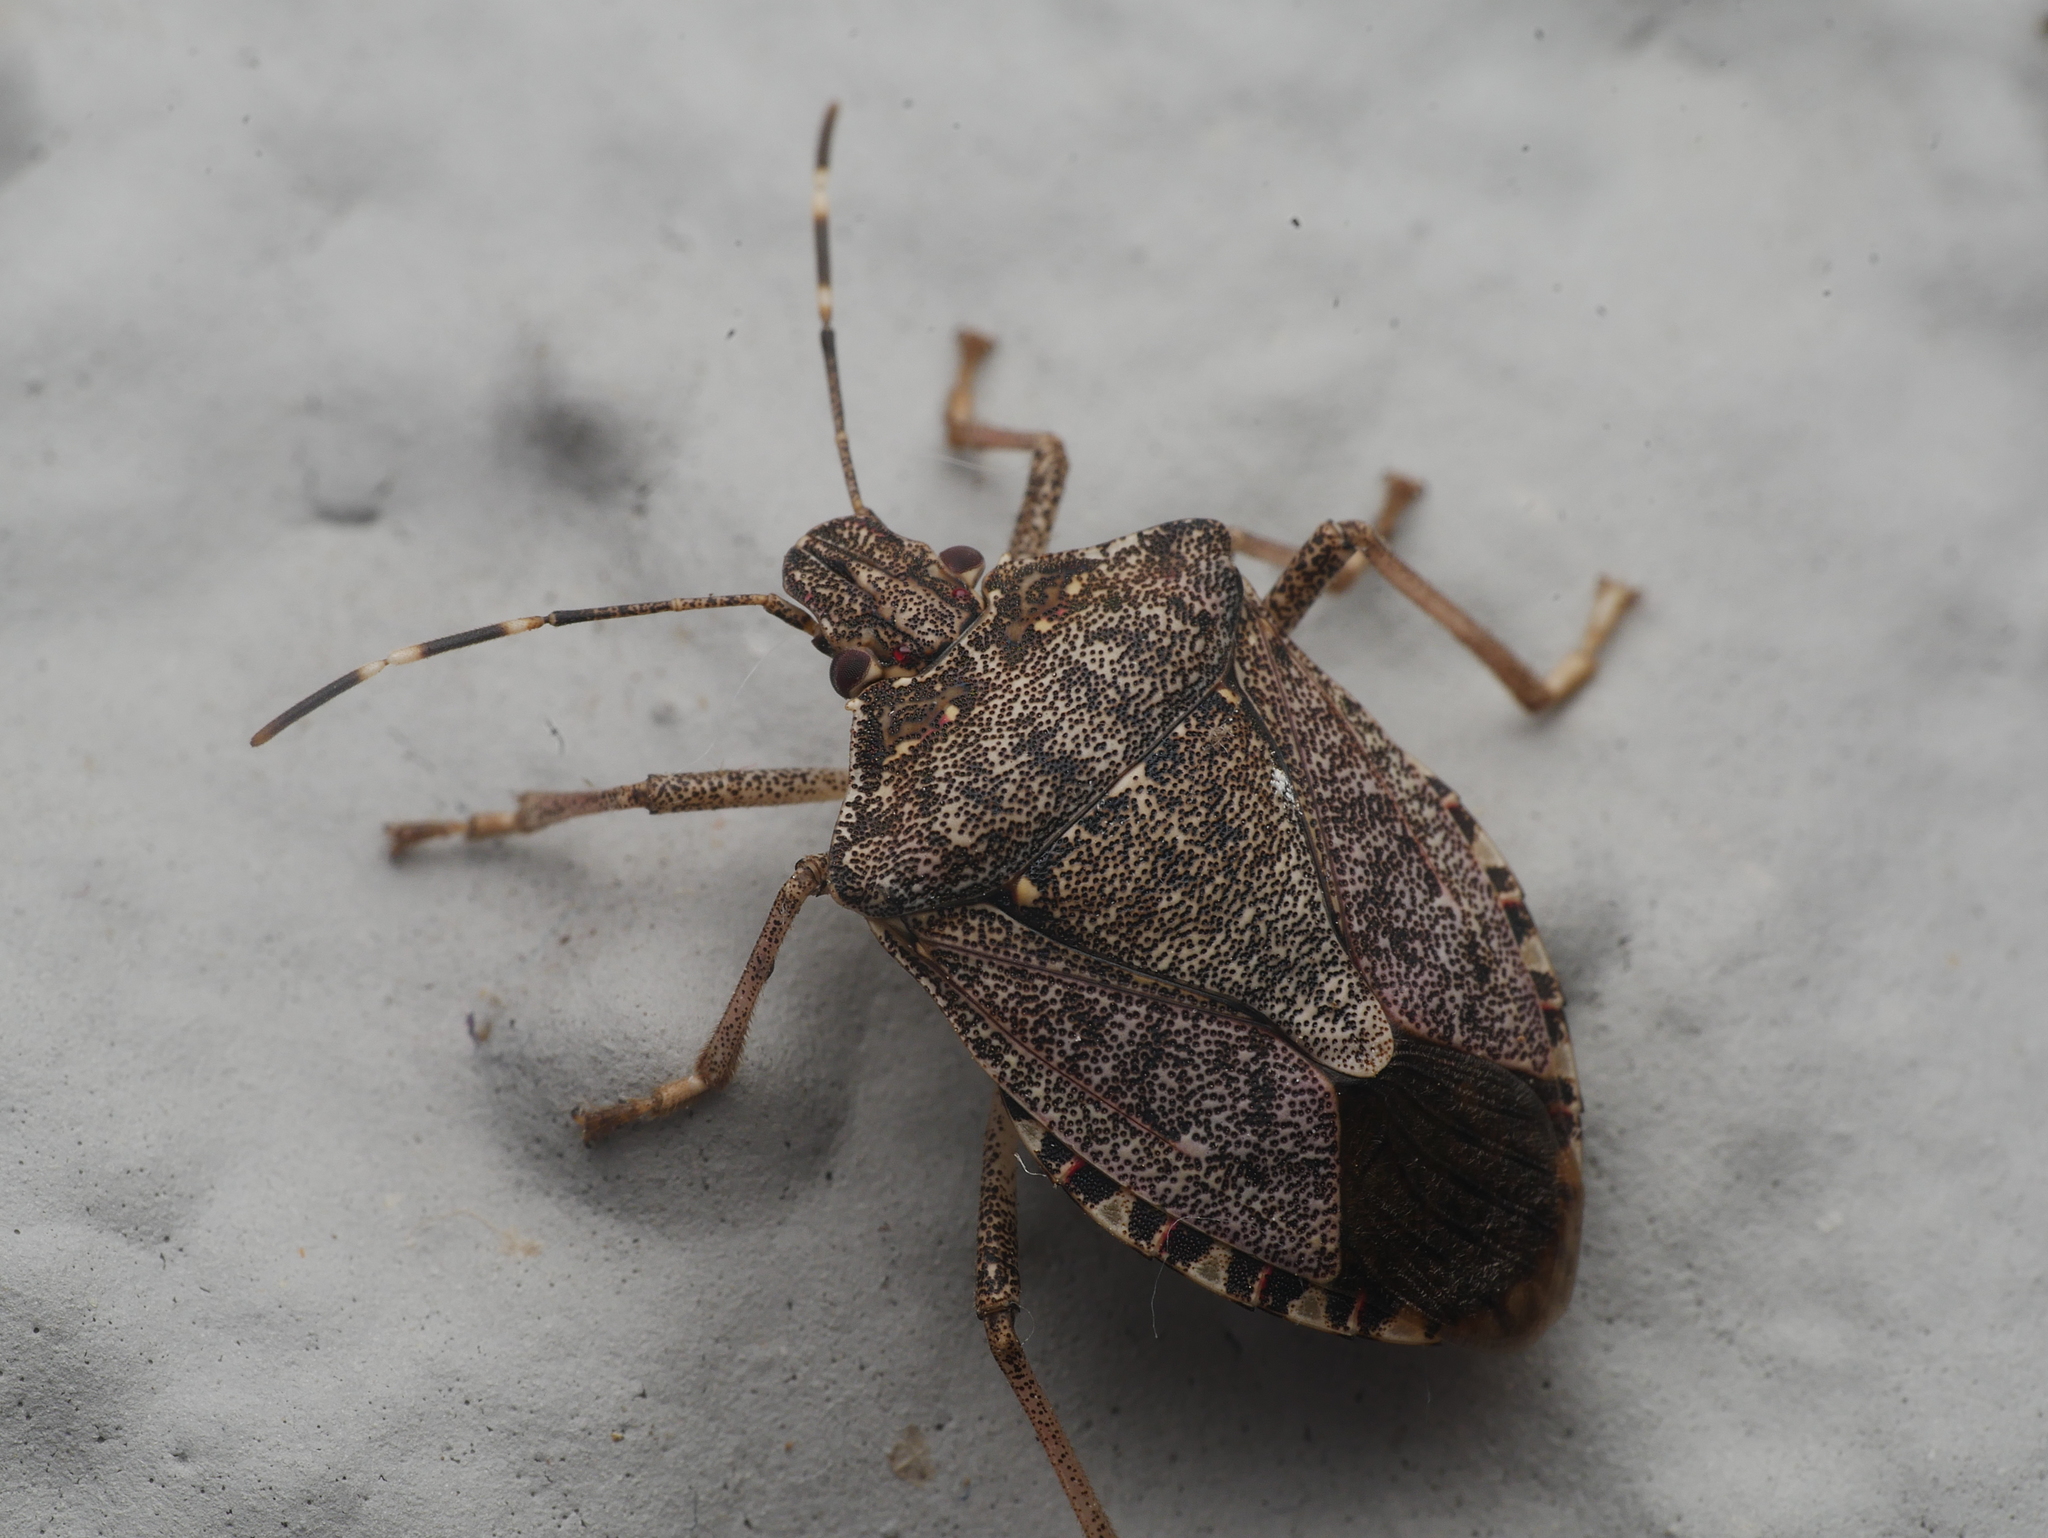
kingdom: Animalia
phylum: Arthropoda
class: Insecta
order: Hemiptera
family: Pentatomidae
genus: Halyomorpha
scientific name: Halyomorpha halys
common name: Brown marmorated stink bug
